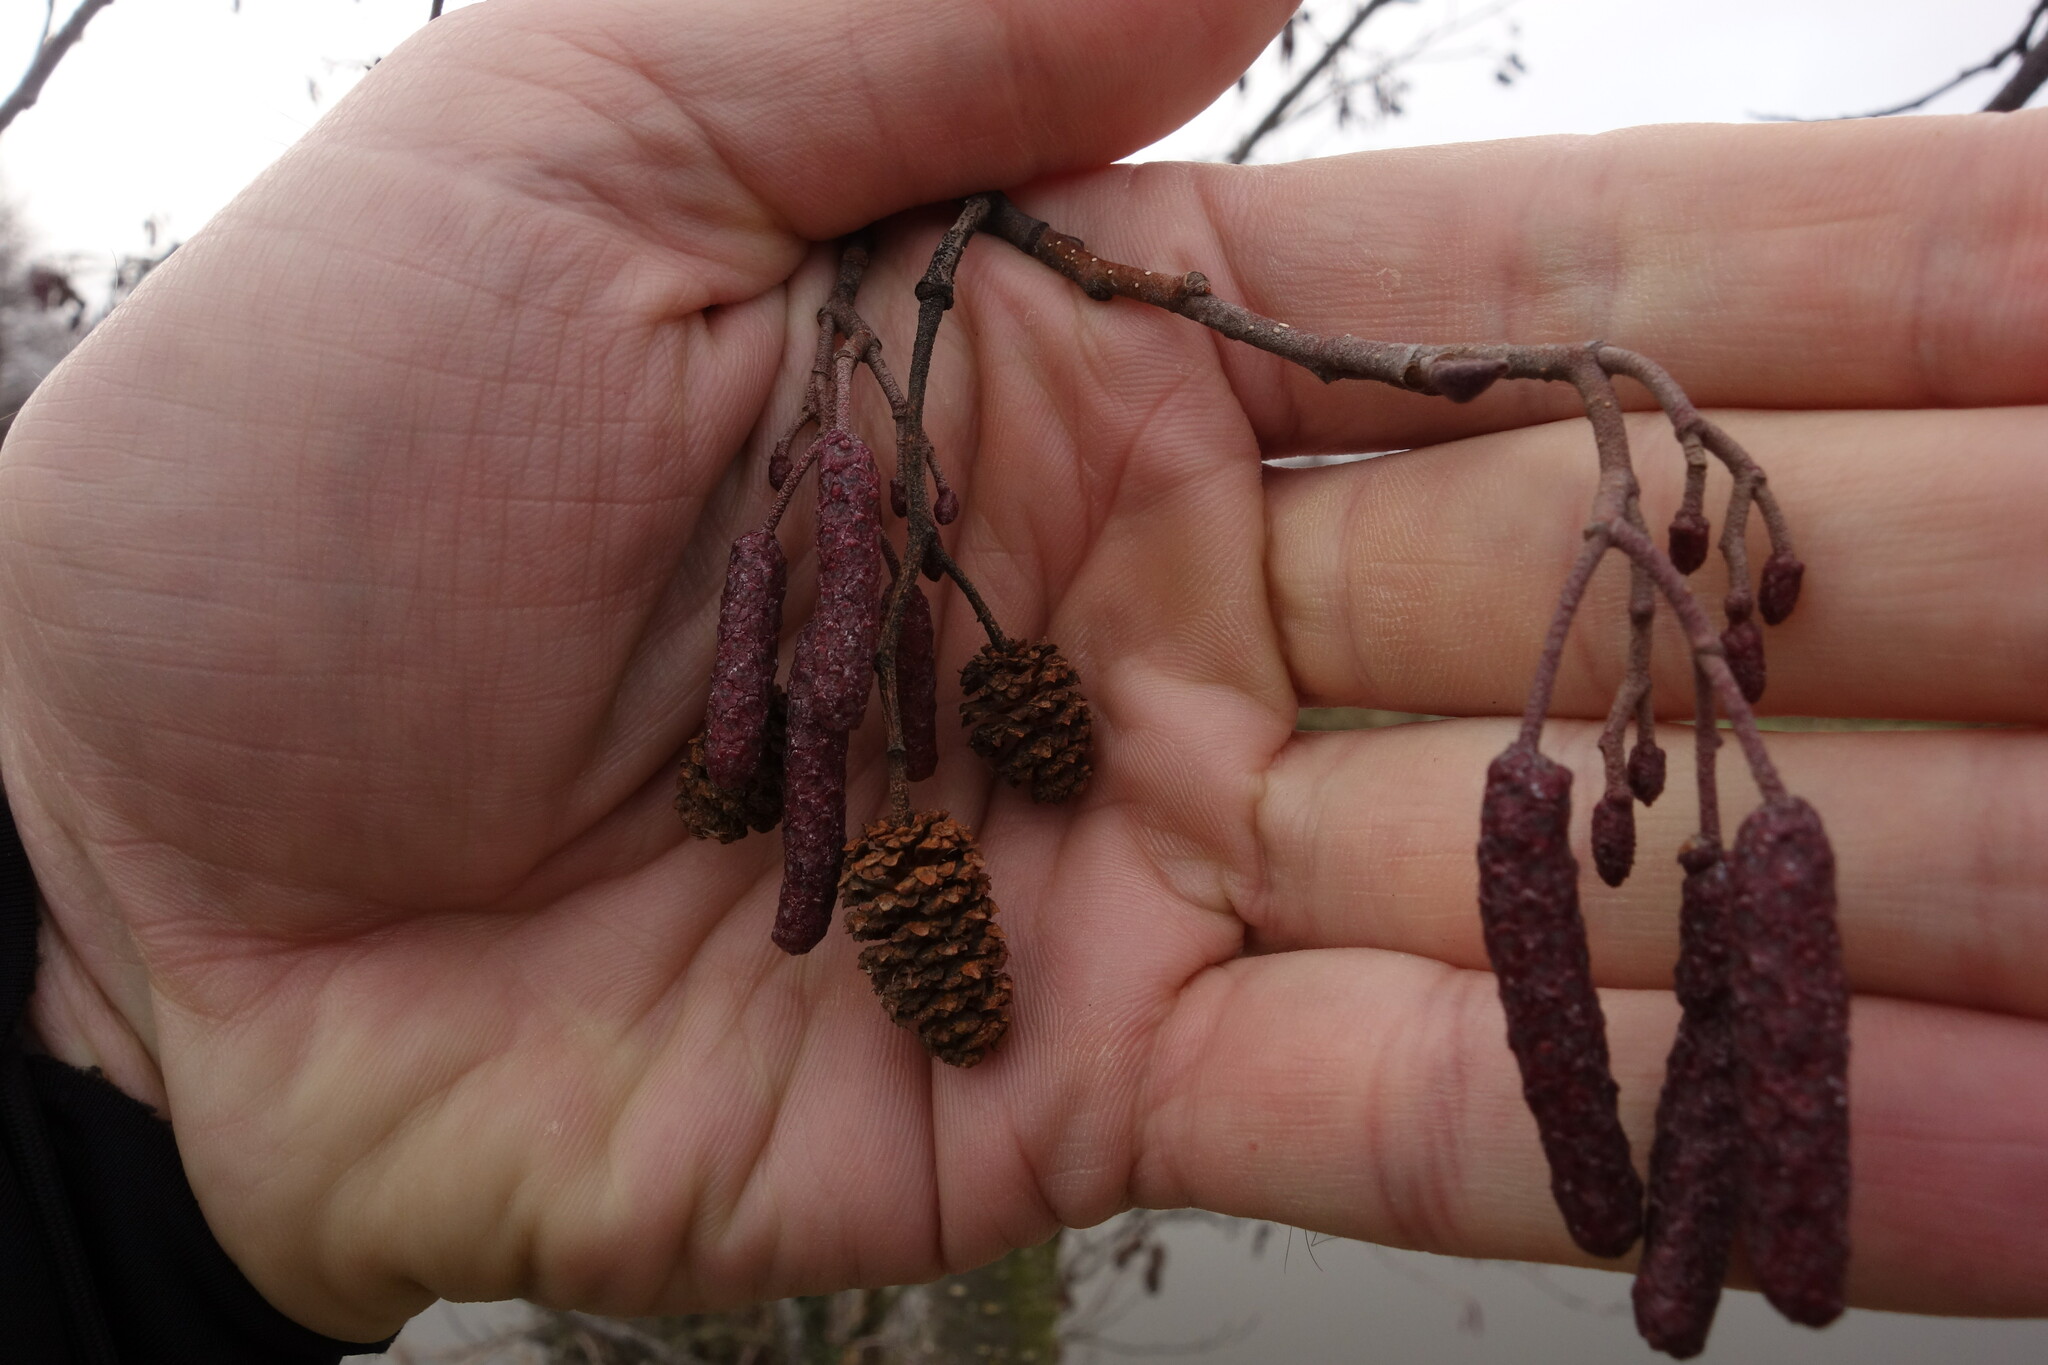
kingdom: Plantae
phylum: Tracheophyta
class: Magnoliopsida
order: Fagales
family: Betulaceae
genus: Alnus
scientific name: Alnus glutinosa
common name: Black alder
